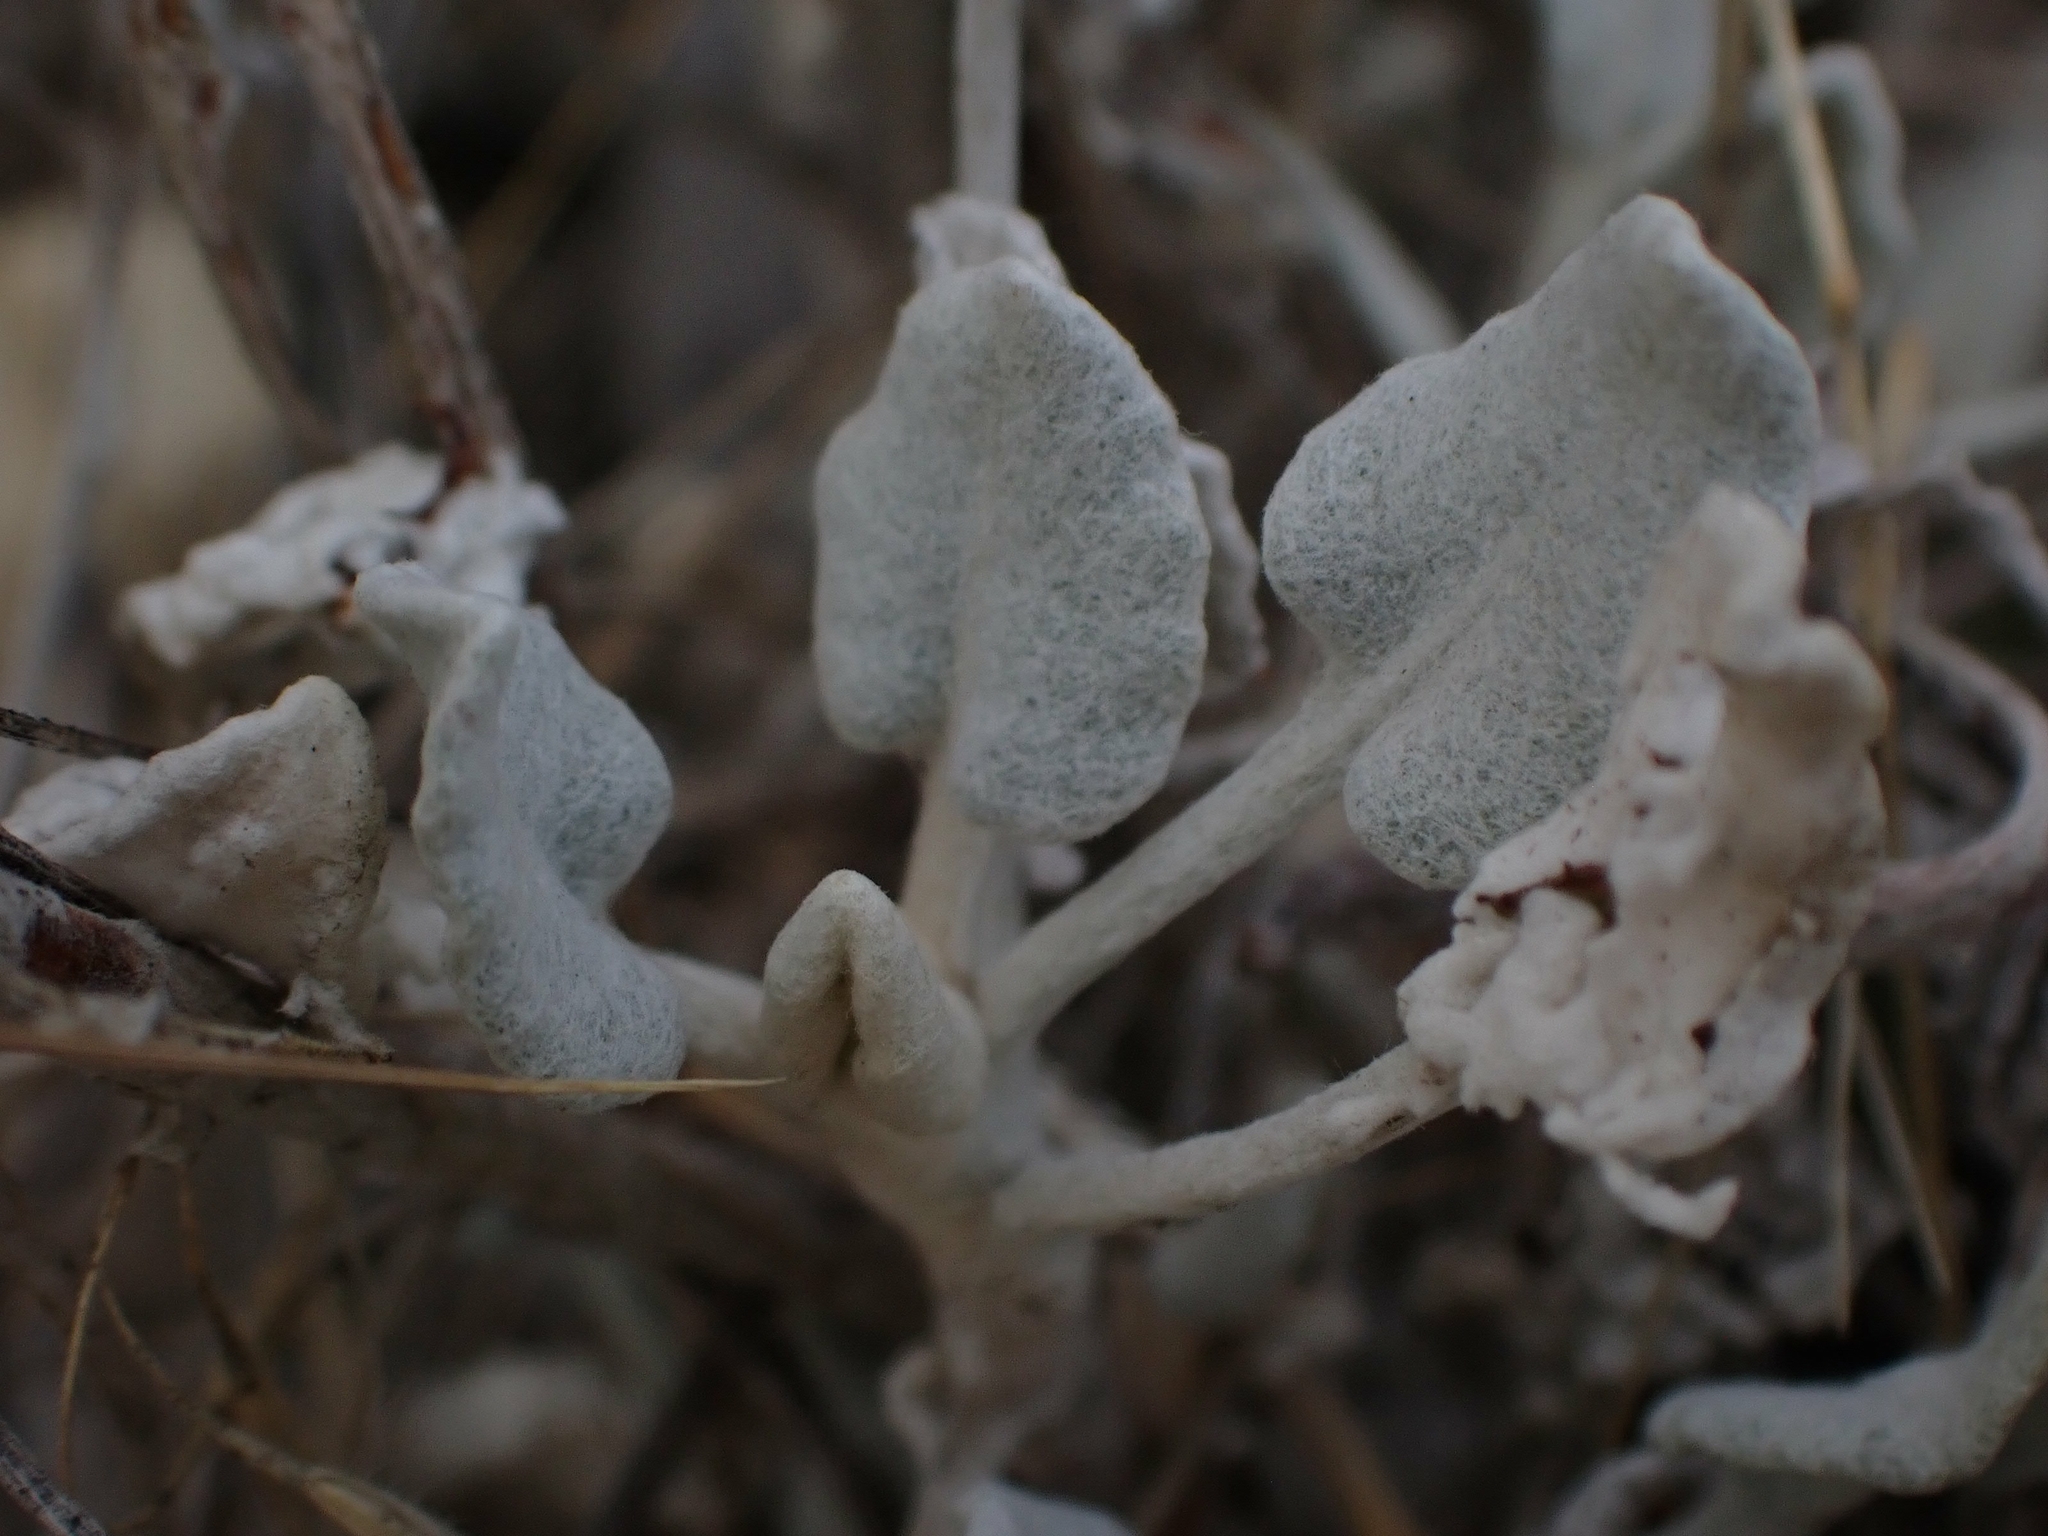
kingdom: Plantae
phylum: Tracheophyta
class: Magnoliopsida
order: Caryophyllales
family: Polygonaceae
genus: Eriogonum
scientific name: Eriogonum niveum
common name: Snow wild buckwheat
